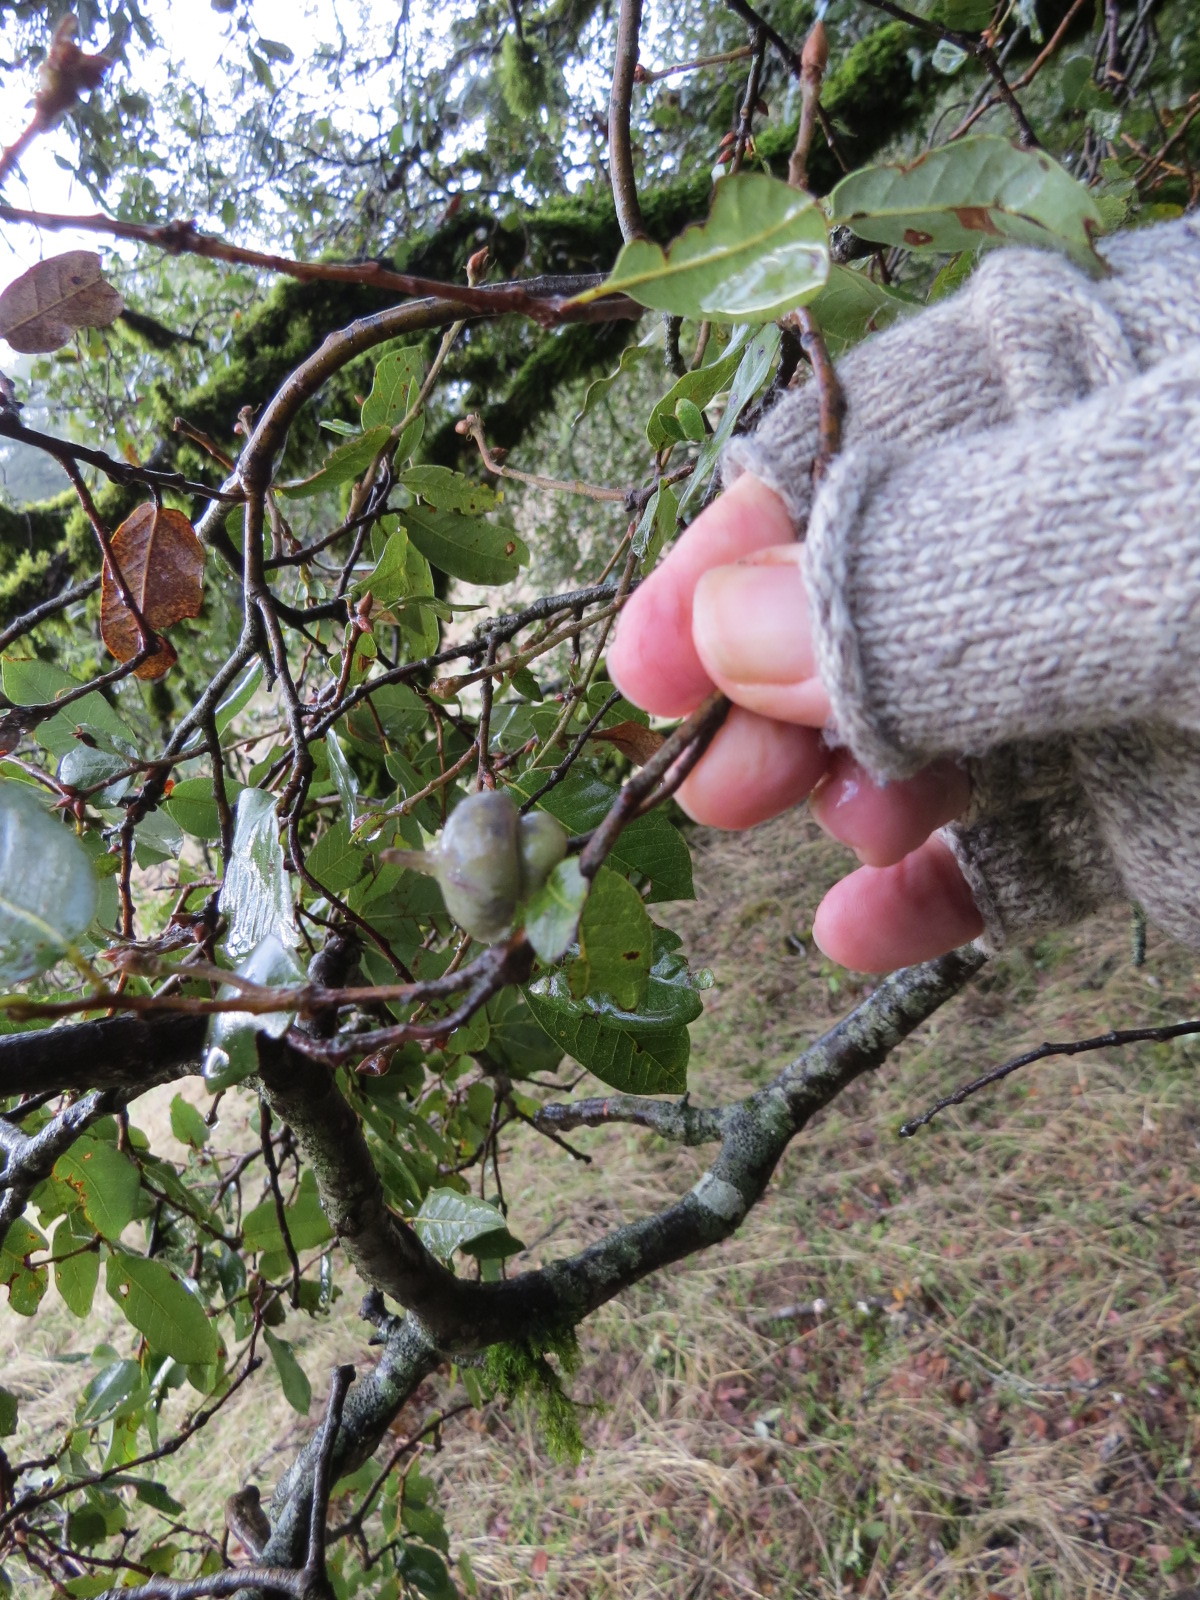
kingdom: Animalia
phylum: Arthropoda
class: Insecta
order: Hymenoptera
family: Cynipidae
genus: Heteroecus
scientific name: Heteroecus
